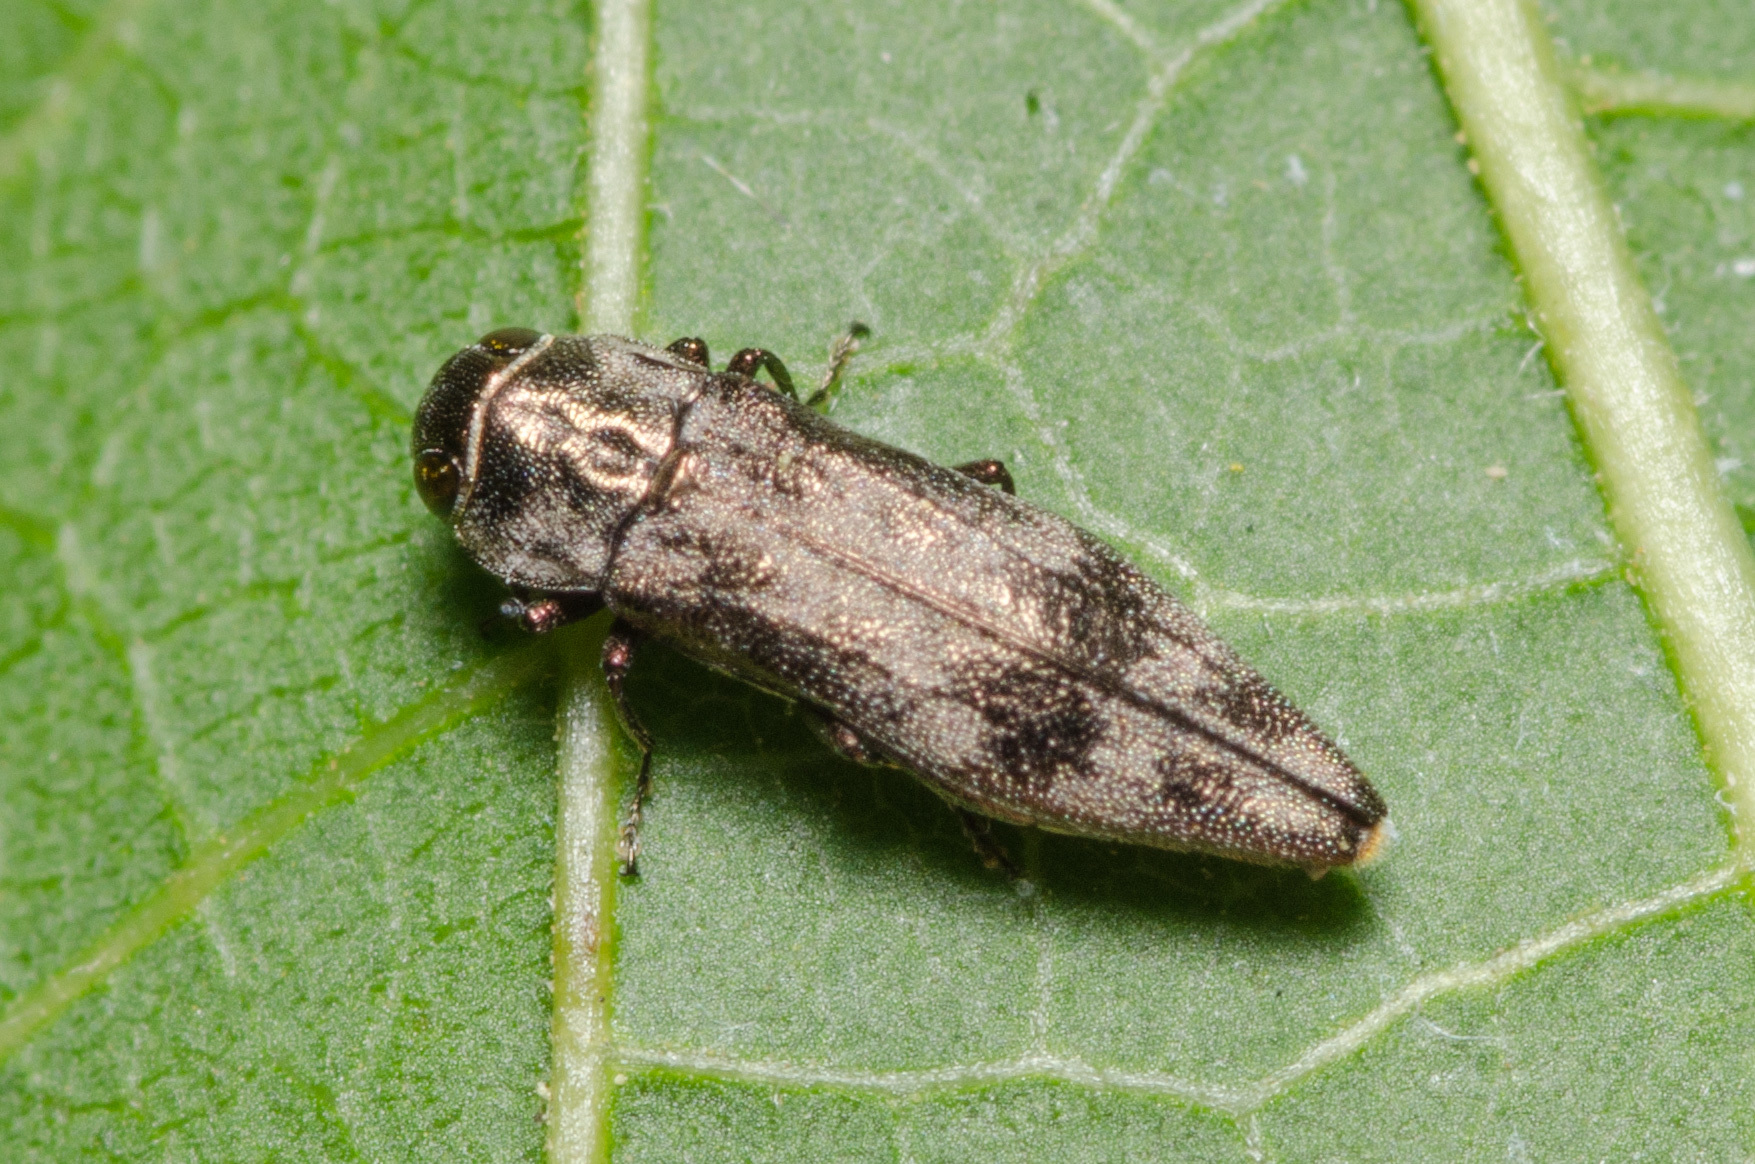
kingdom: Animalia
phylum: Arthropoda
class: Insecta
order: Coleoptera
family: Buprestidae
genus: Agrilus
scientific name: Agrilus lecontei
